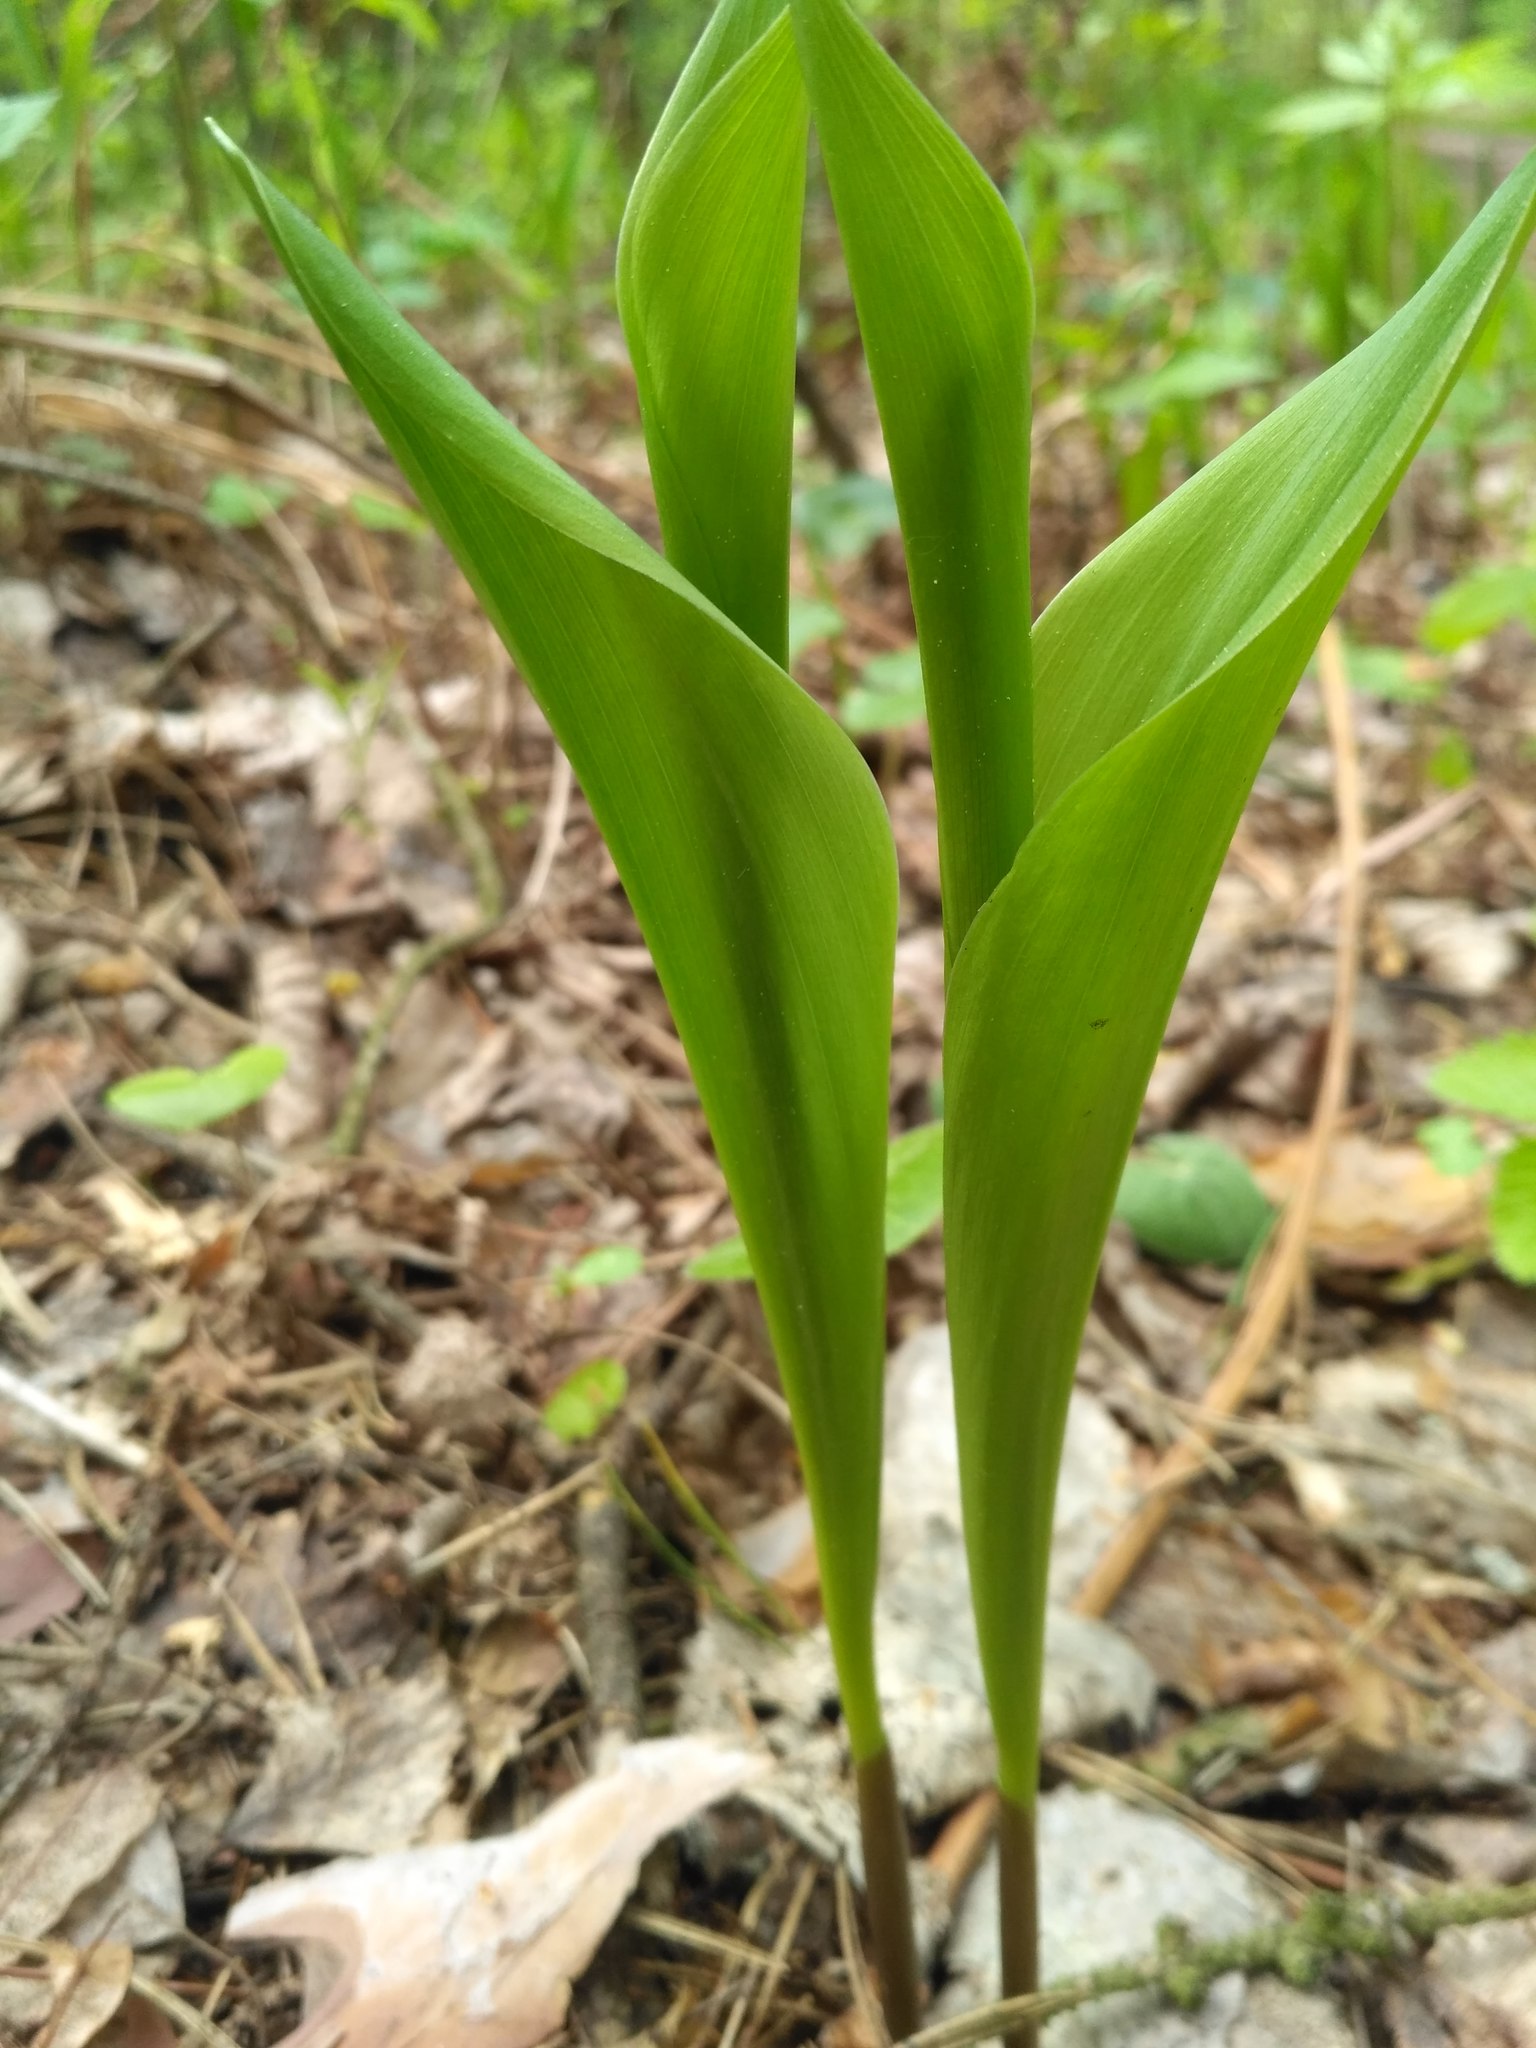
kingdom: Plantae
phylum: Tracheophyta
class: Liliopsida
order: Asparagales
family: Asparagaceae
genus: Convallaria
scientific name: Convallaria majalis
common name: Lily-of-the-valley
